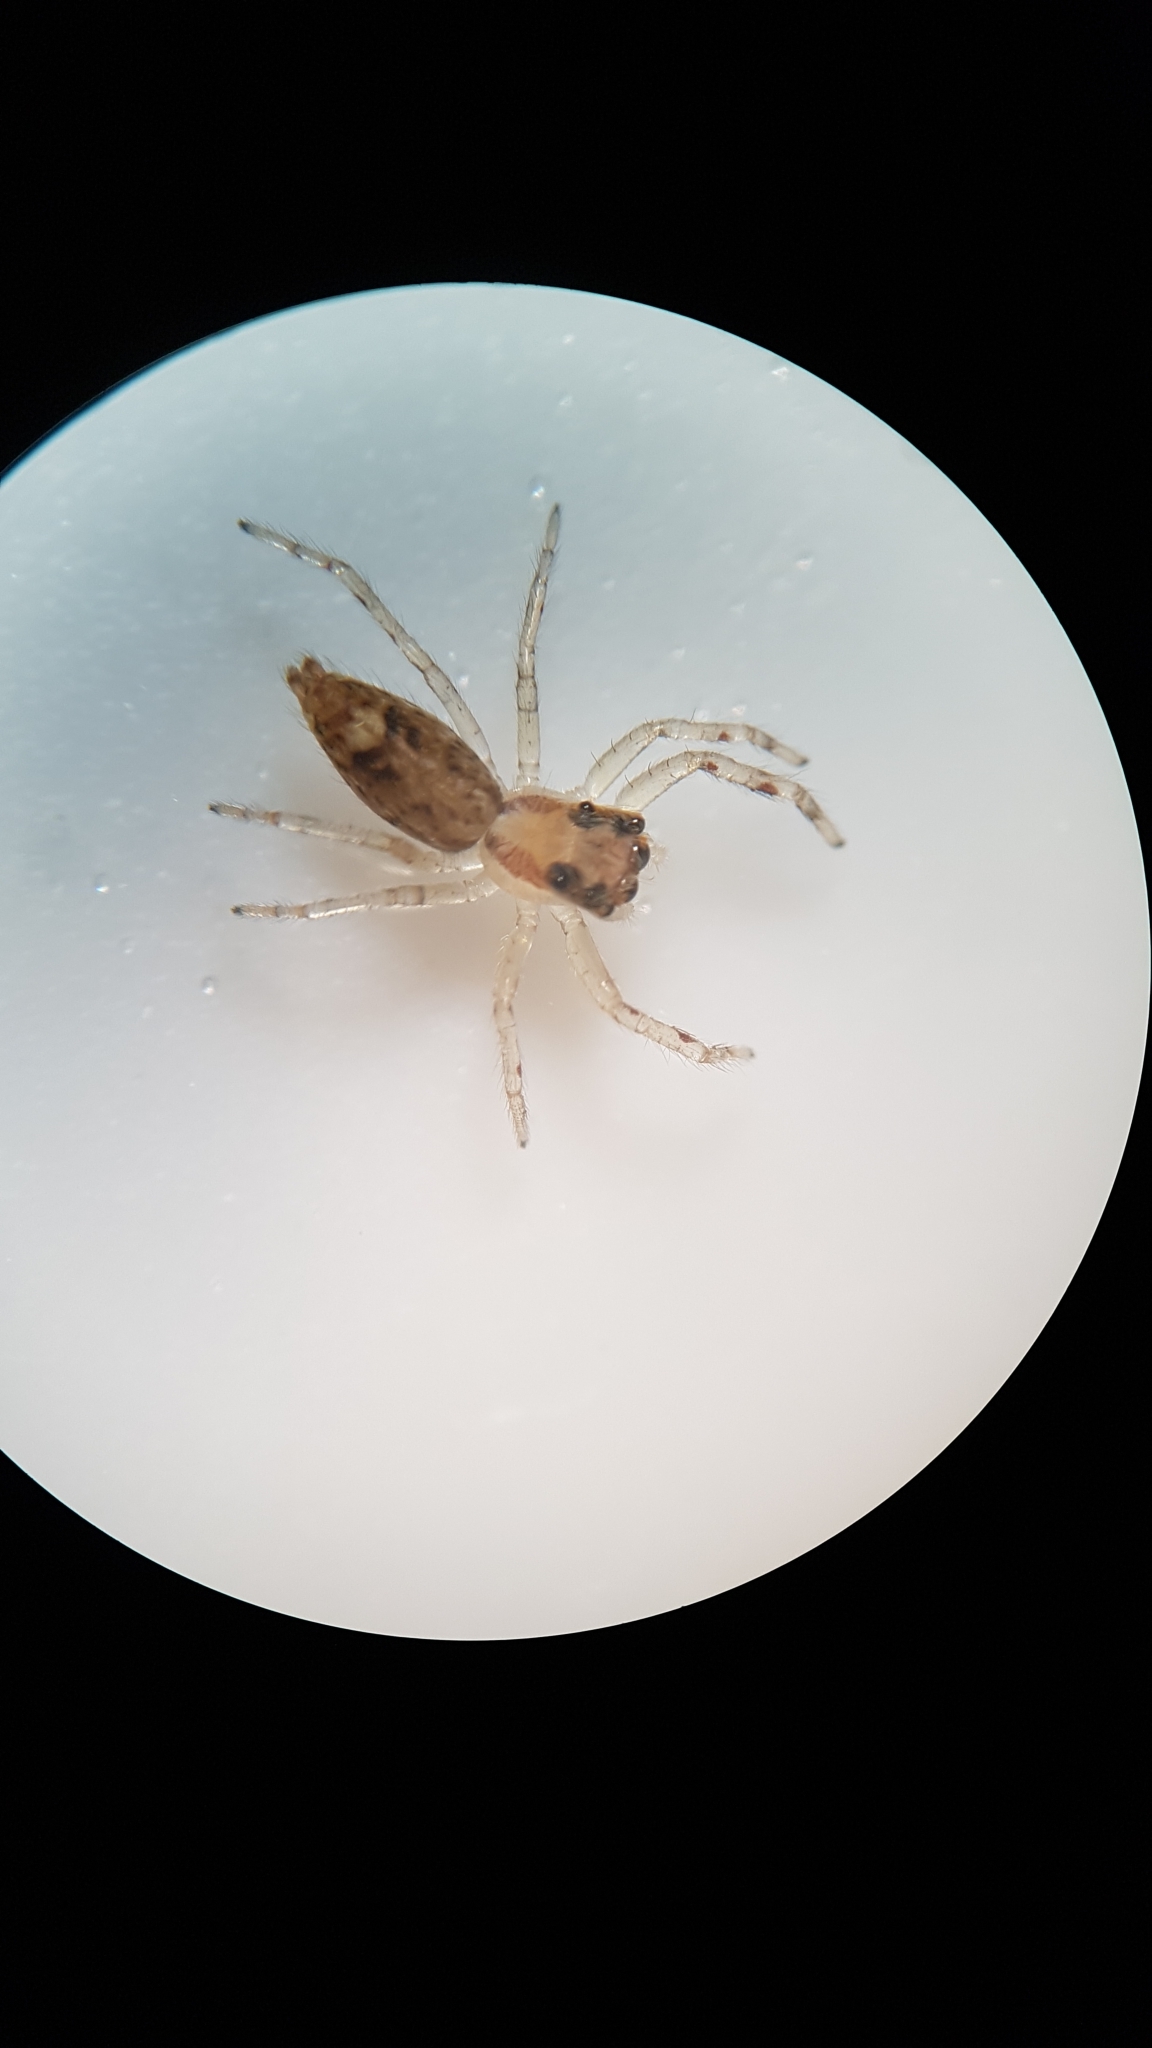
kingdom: Animalia
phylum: Arthropoda
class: Arachnida
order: Araneae
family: Salticidae
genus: Helpis
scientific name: Helpis minitabunda
